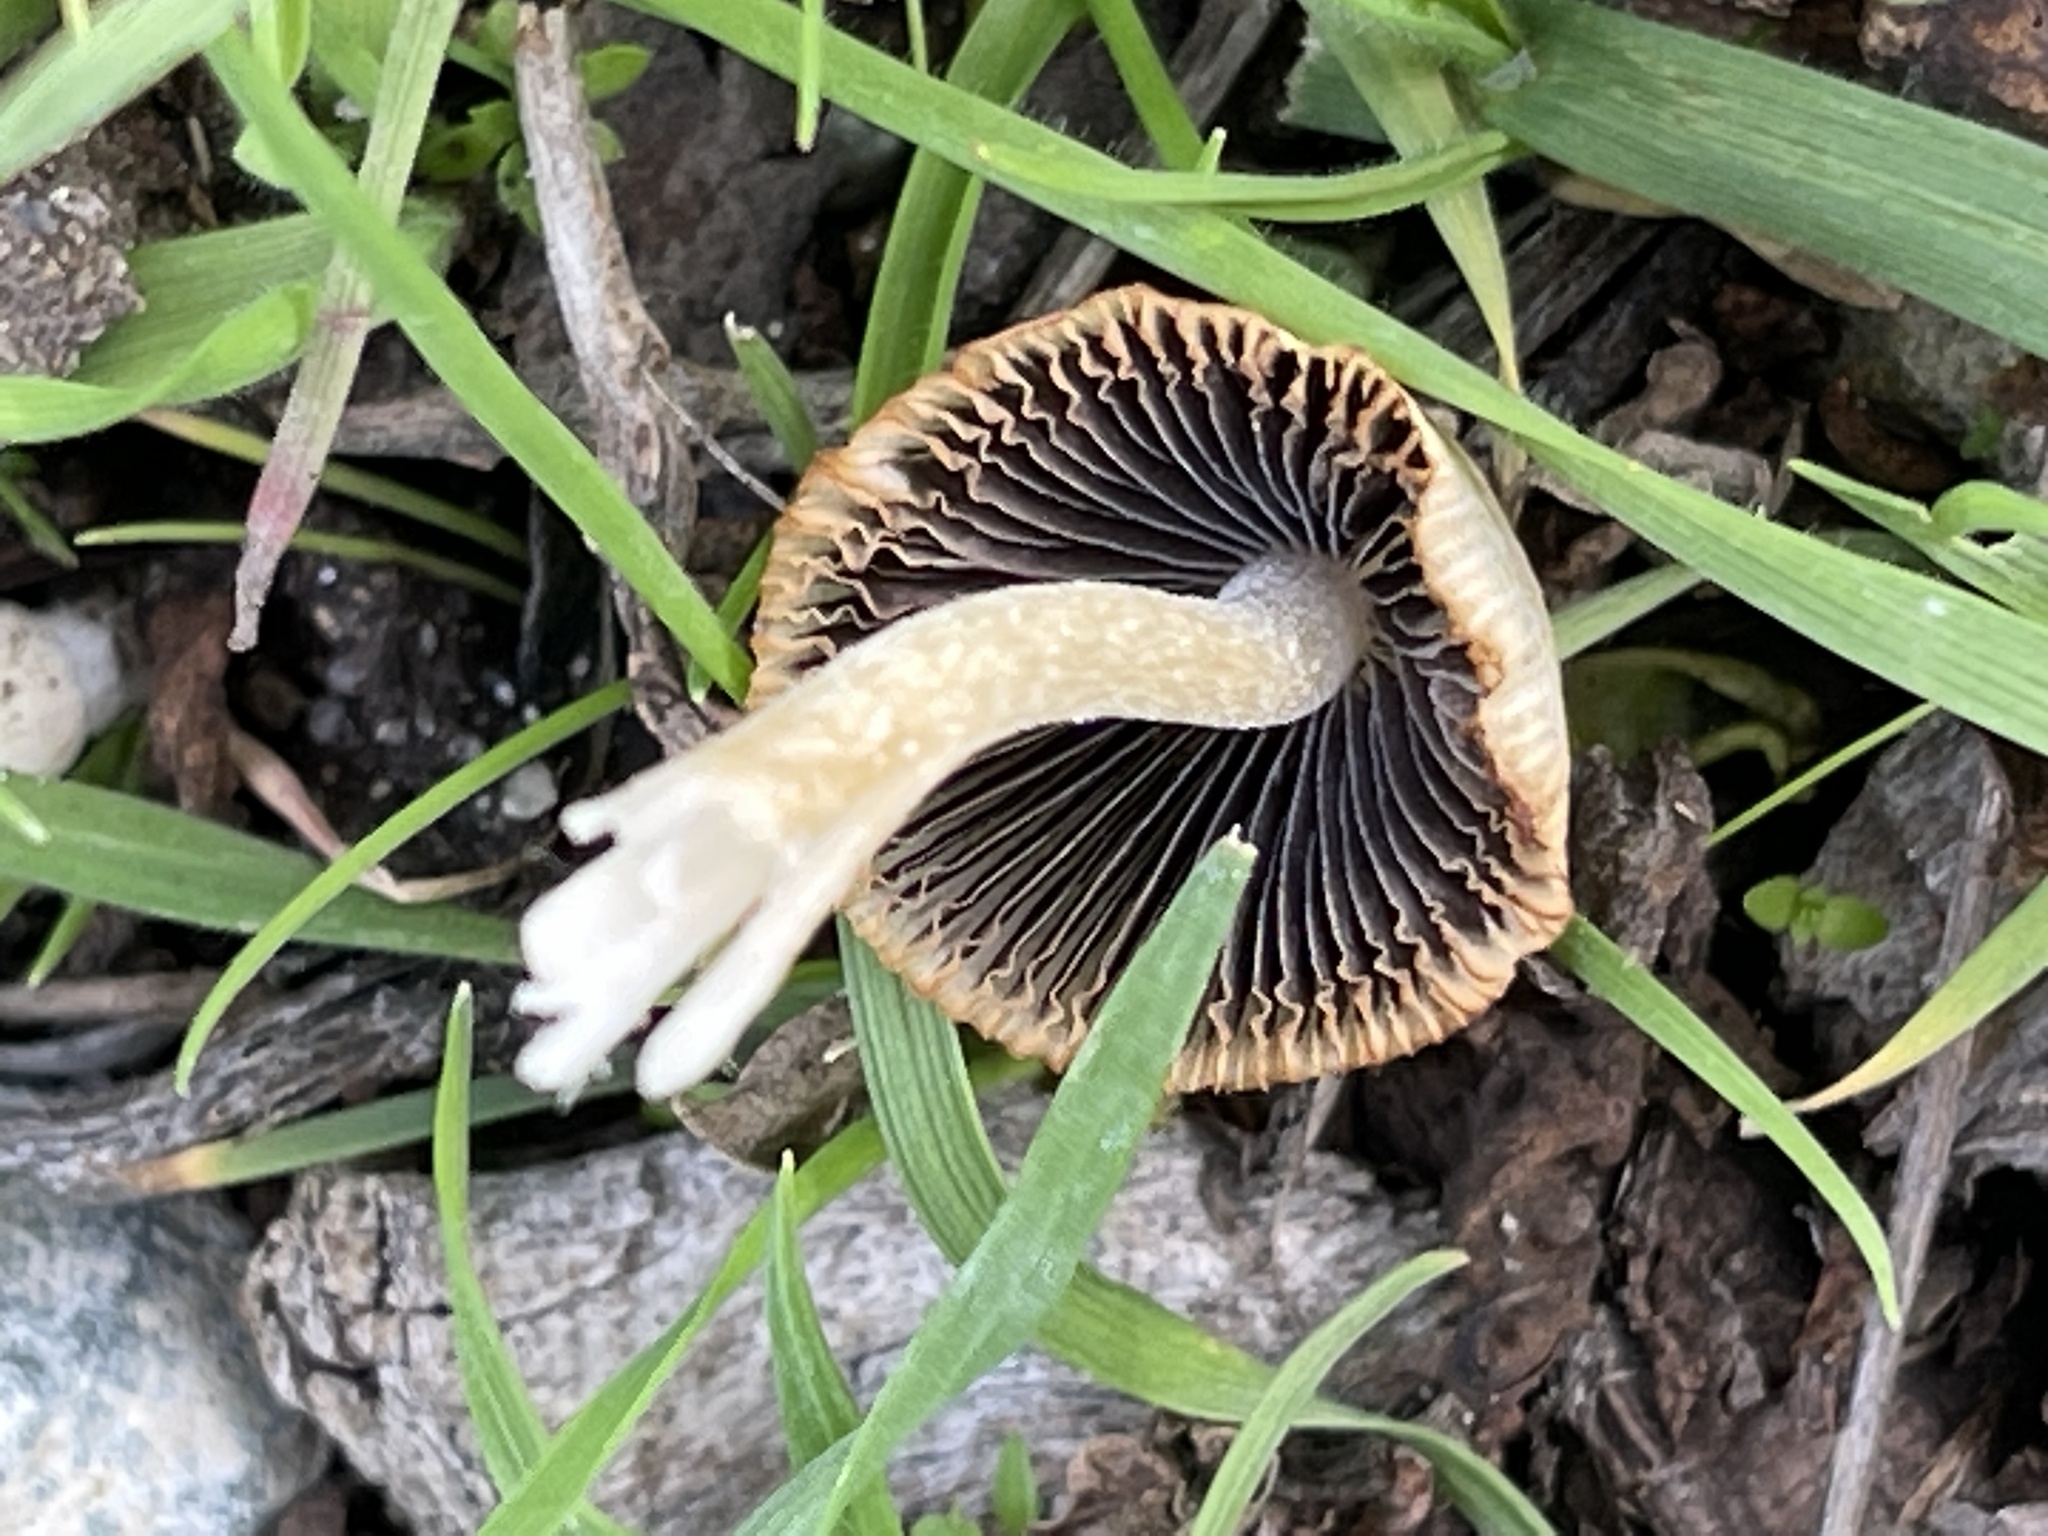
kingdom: Fungi
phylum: Basidiomycota
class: Agaricomycetes
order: Agaricales
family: Psathyrellaceae
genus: Candolleomyces
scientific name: Candolleomyces candolleanus
